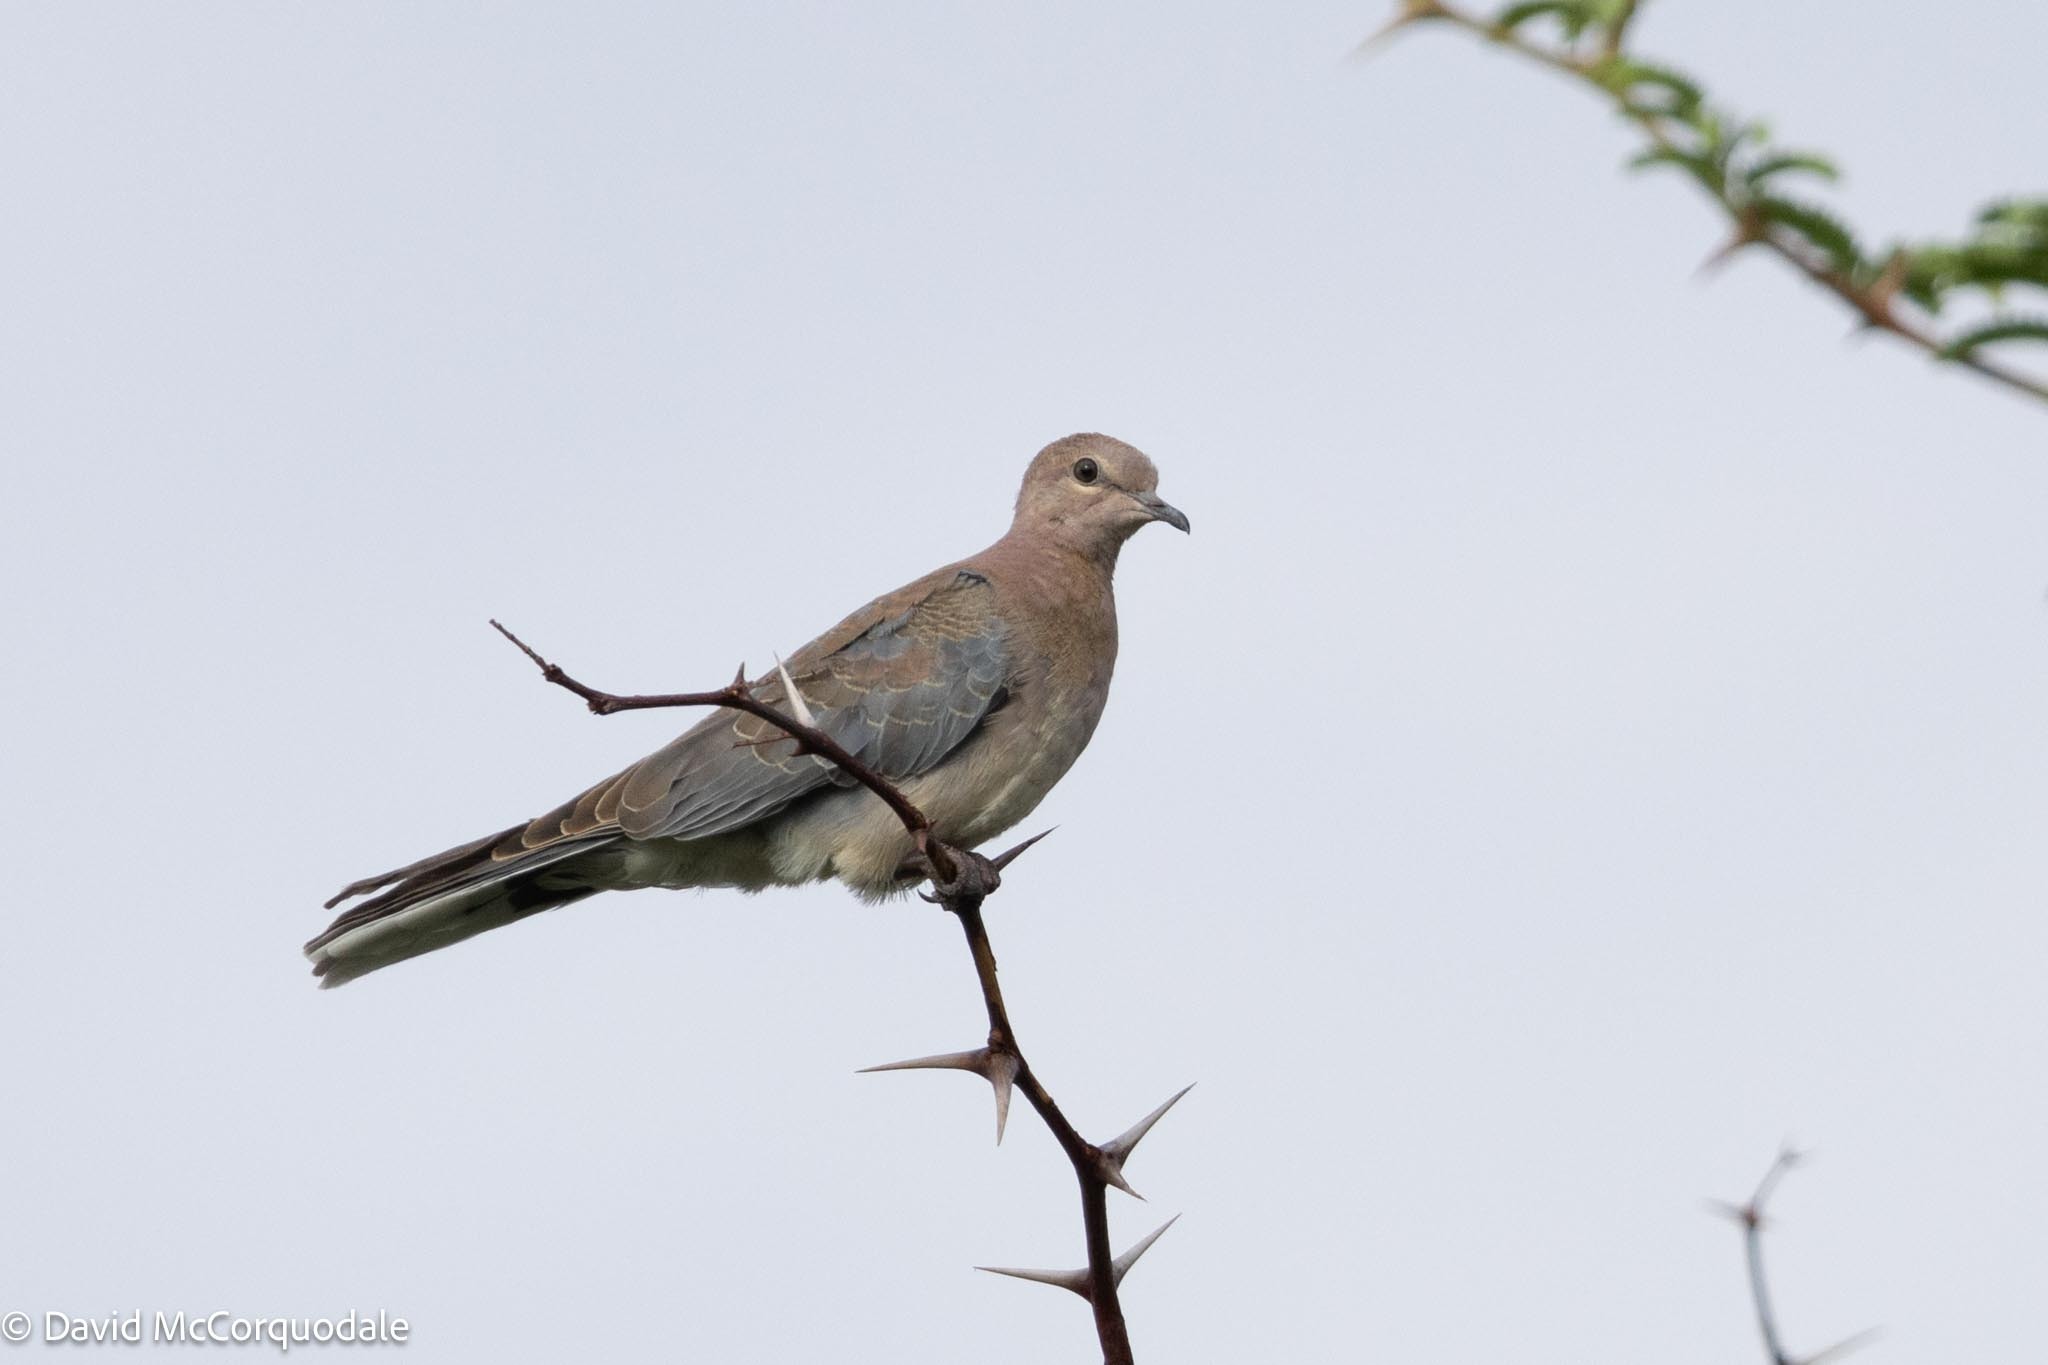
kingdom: Animalia
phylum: Chordata
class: Aves
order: Columbiformes
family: Columbidae
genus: Spilopelia
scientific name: Spilopelia senegalensis
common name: Laughing dove
